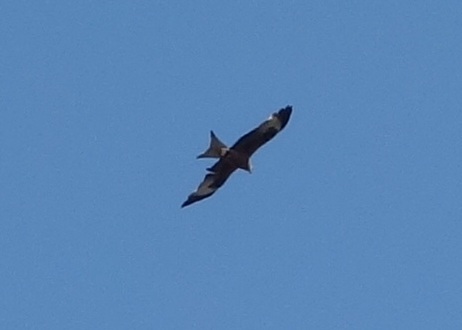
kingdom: Animalia
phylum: Chordata
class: Aves
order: Accipitriformes
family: Accipitridae
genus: Milvus
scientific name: Milvus milvus
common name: Red kite
